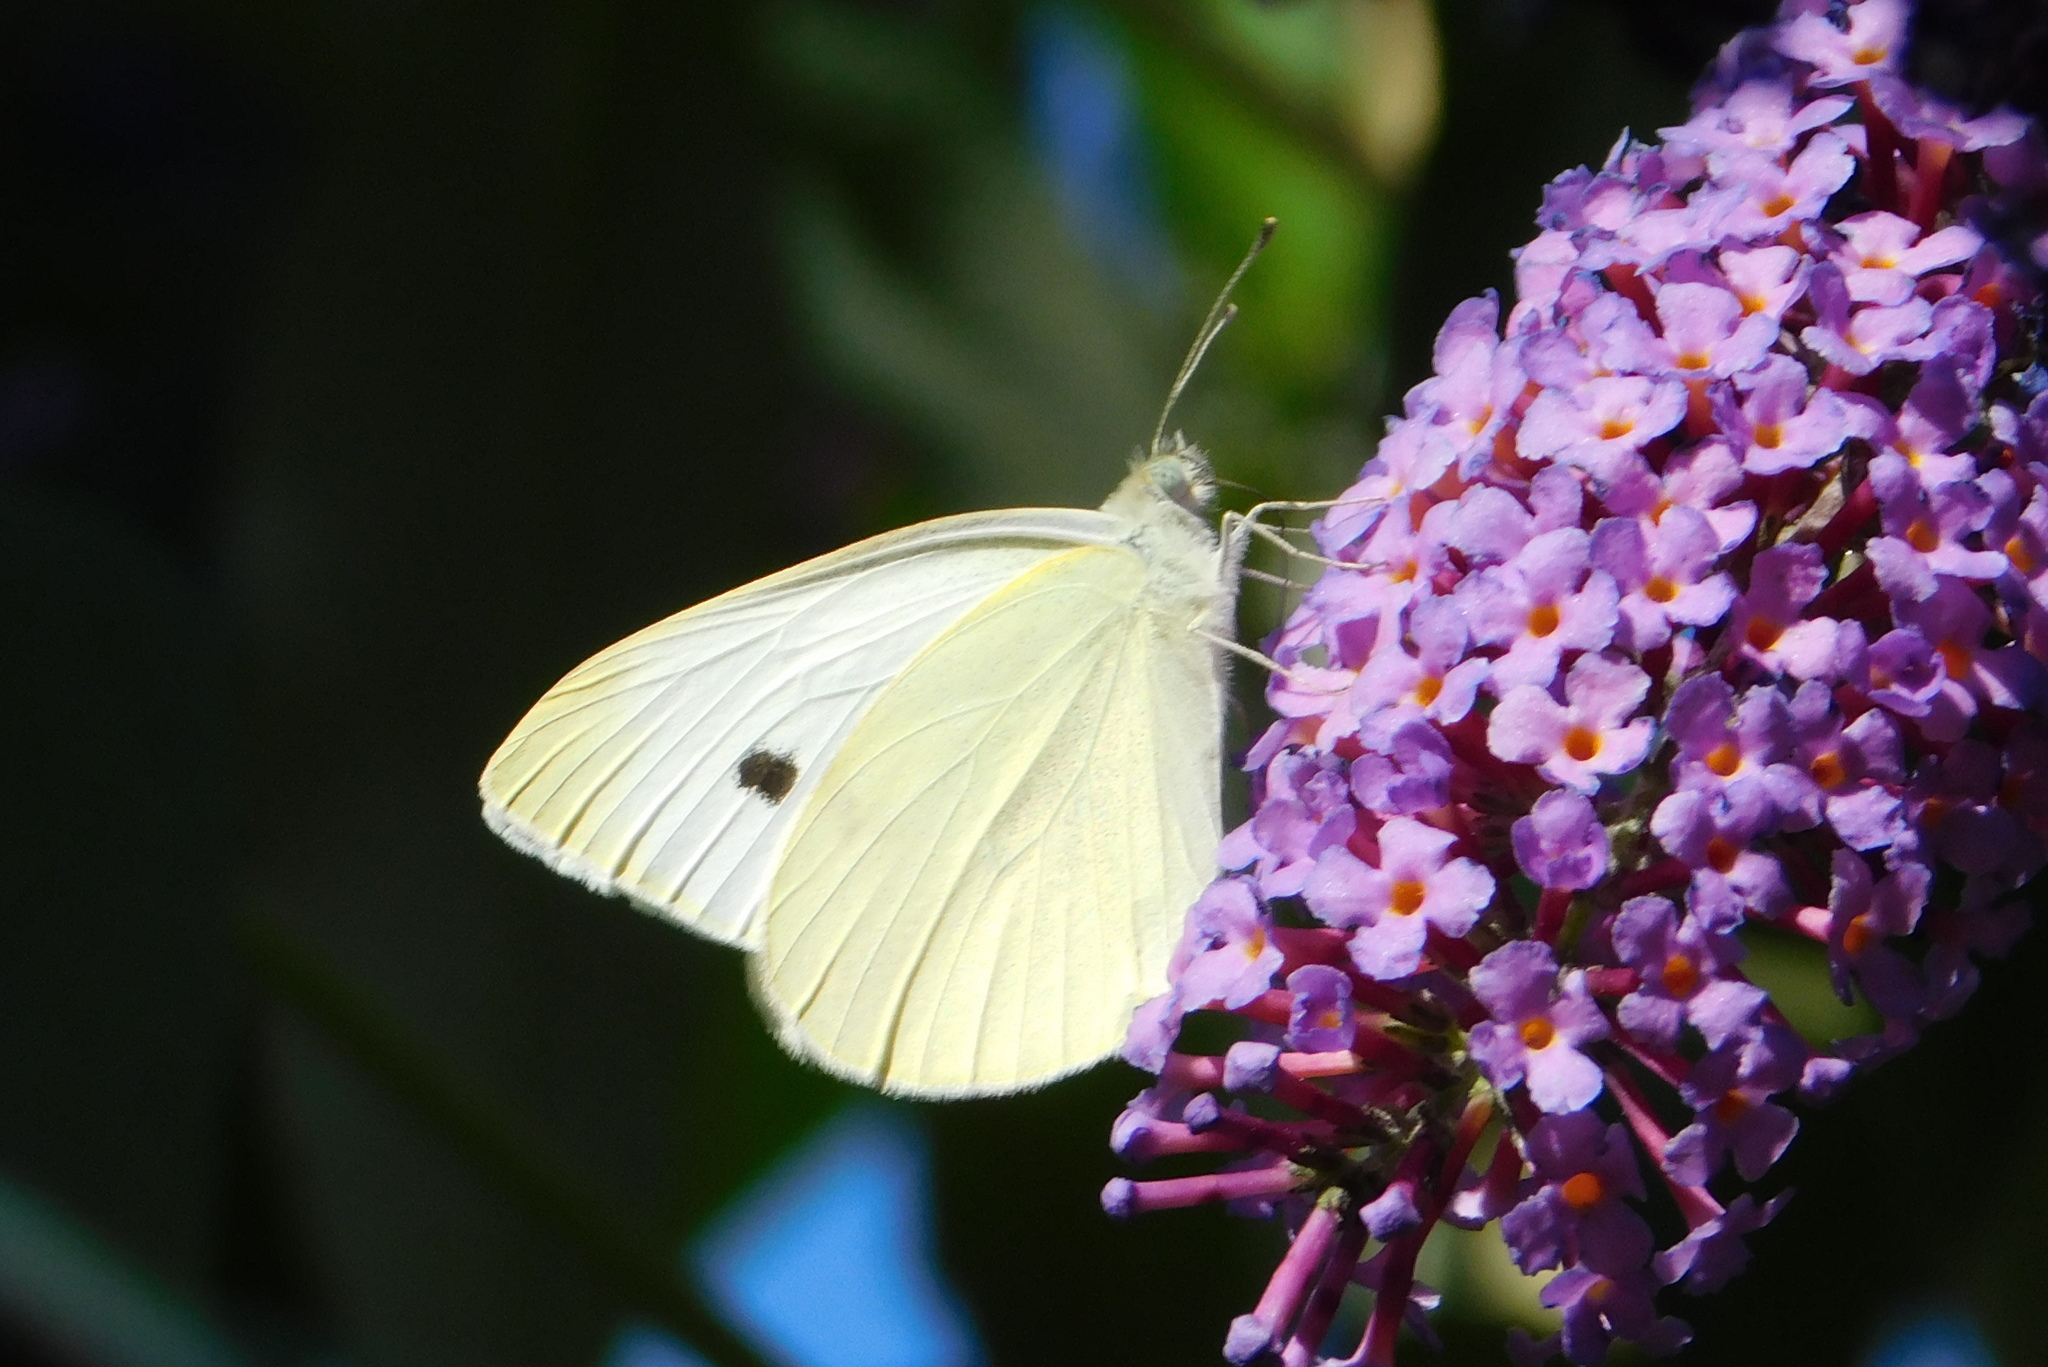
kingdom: Animalia
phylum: Arthropoda
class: Insecta
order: Lepidoptera
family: Pieridae
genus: Pieris
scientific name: Pieris rapae
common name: Small white
